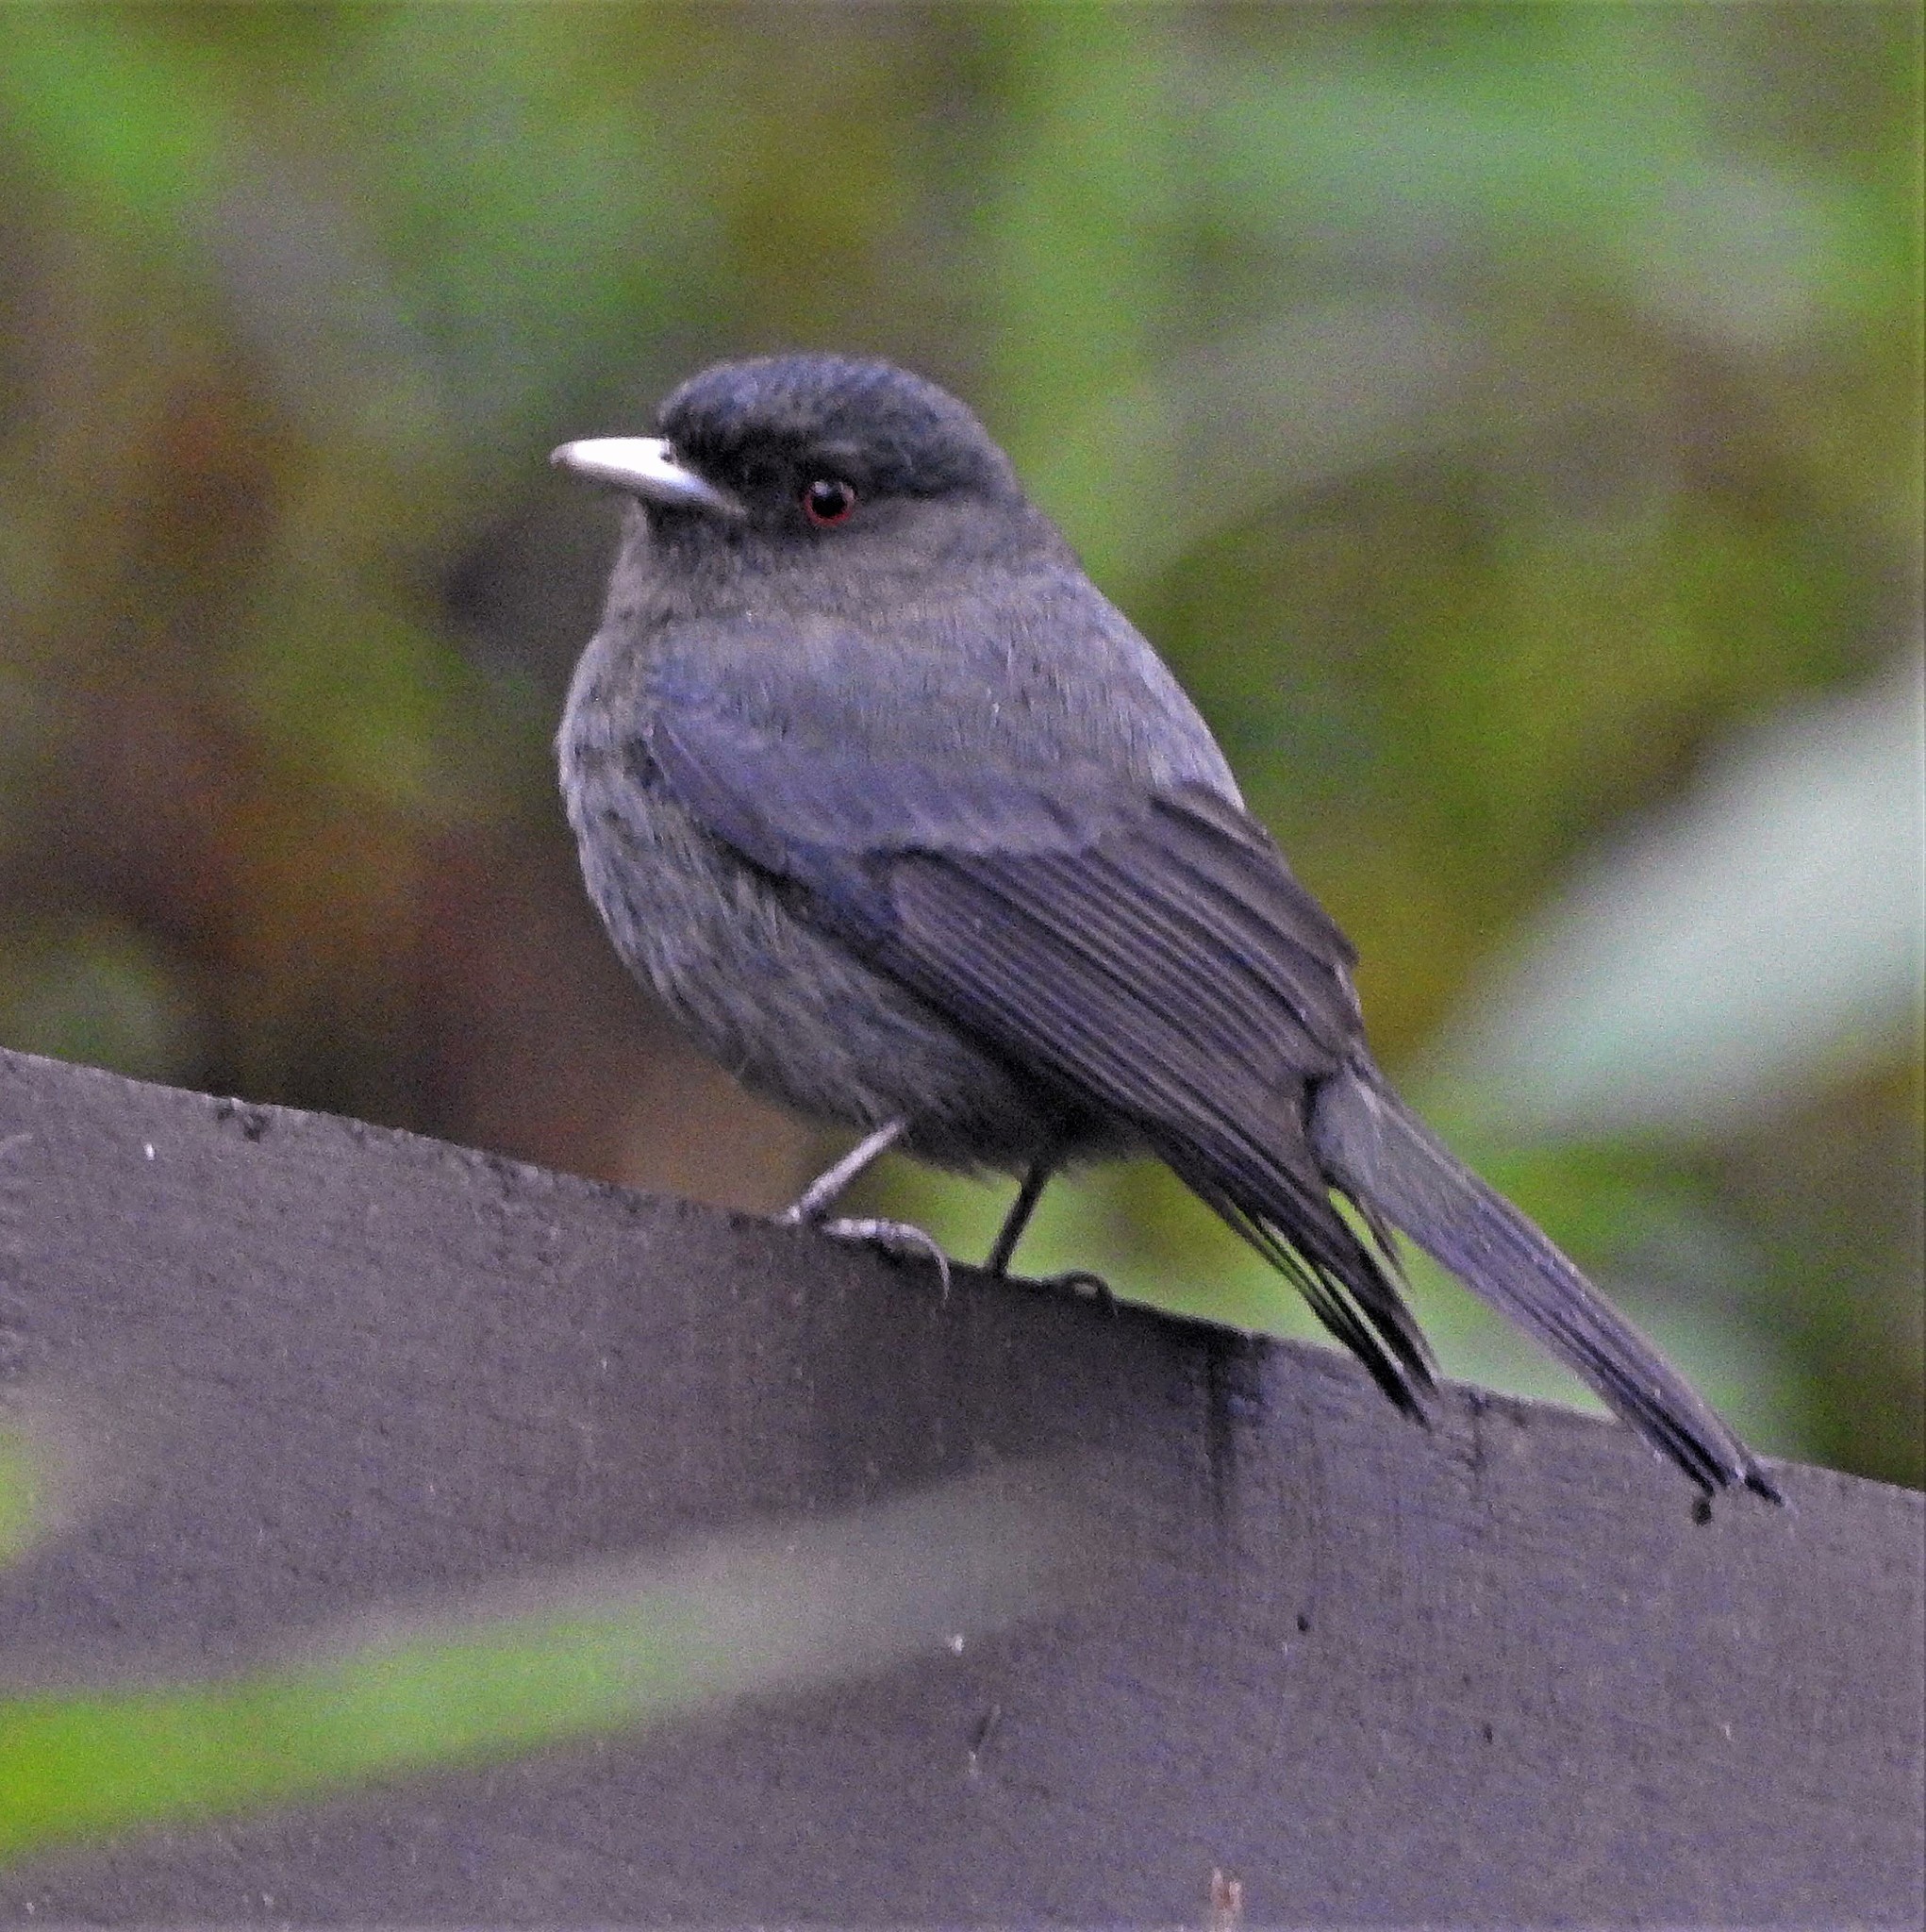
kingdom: Animalia
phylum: Chordata
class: Aves
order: Passeriformes
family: Tyrannidae
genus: Knipolegus
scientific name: Knipolegus cabanisi
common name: Plumbeous tyrant
